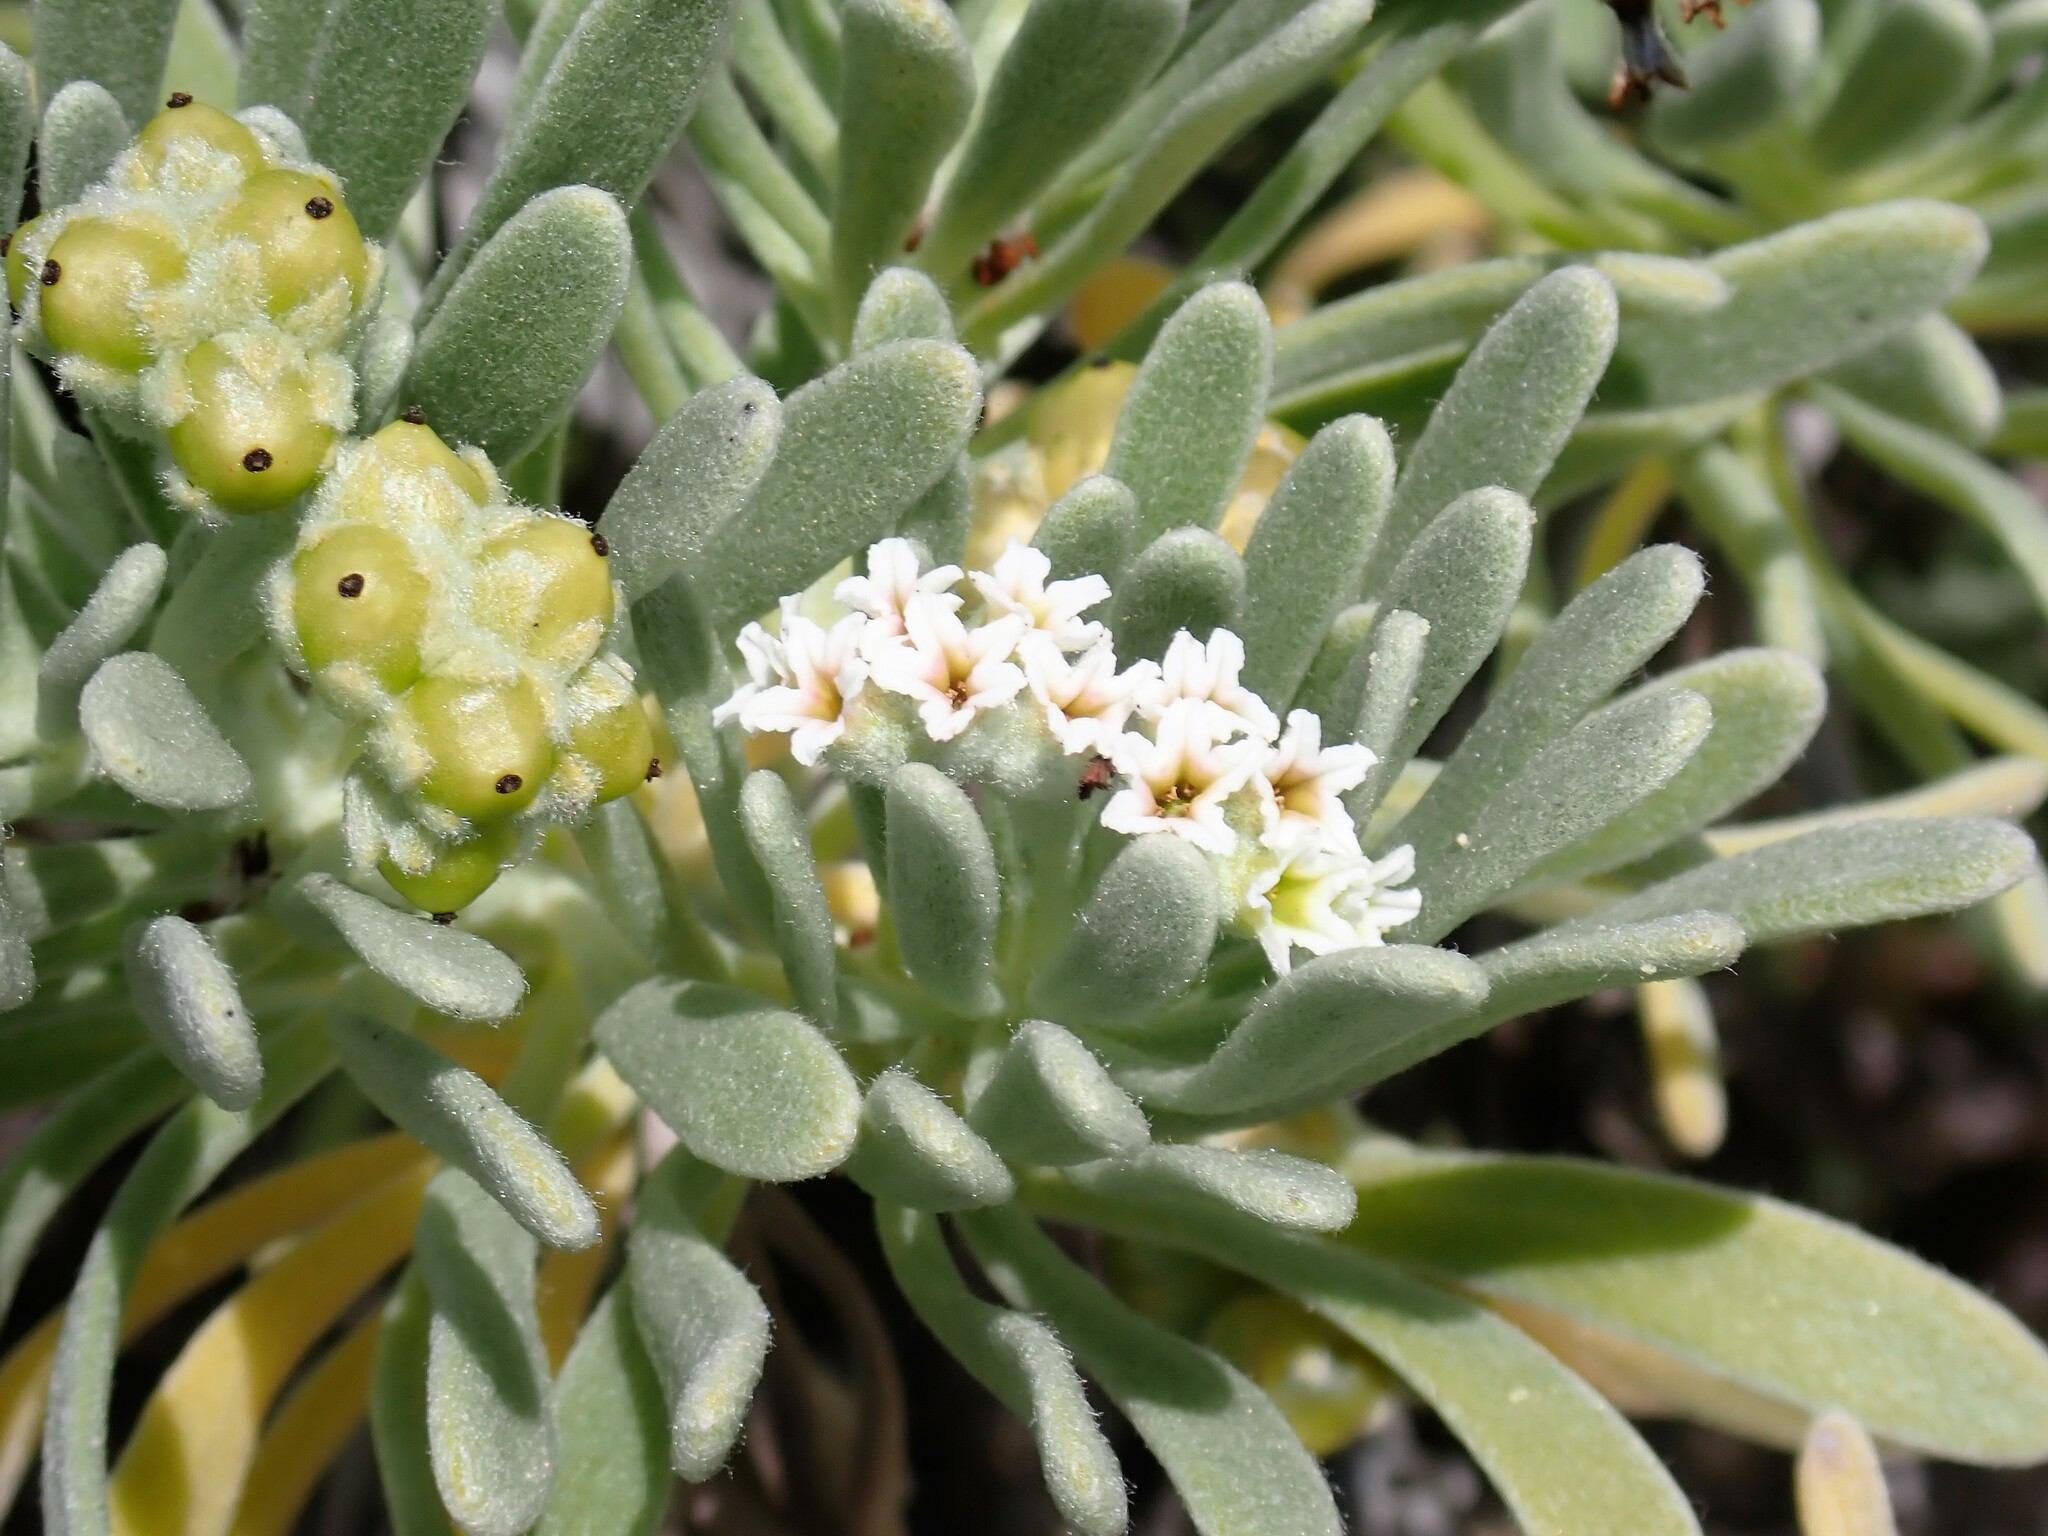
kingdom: Plantae
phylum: Tracheophyta
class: Magnoliopsida
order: Boraginales
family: Heliotropiaceae
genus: Tournefortia
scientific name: Tournefortia gnaphalodes
